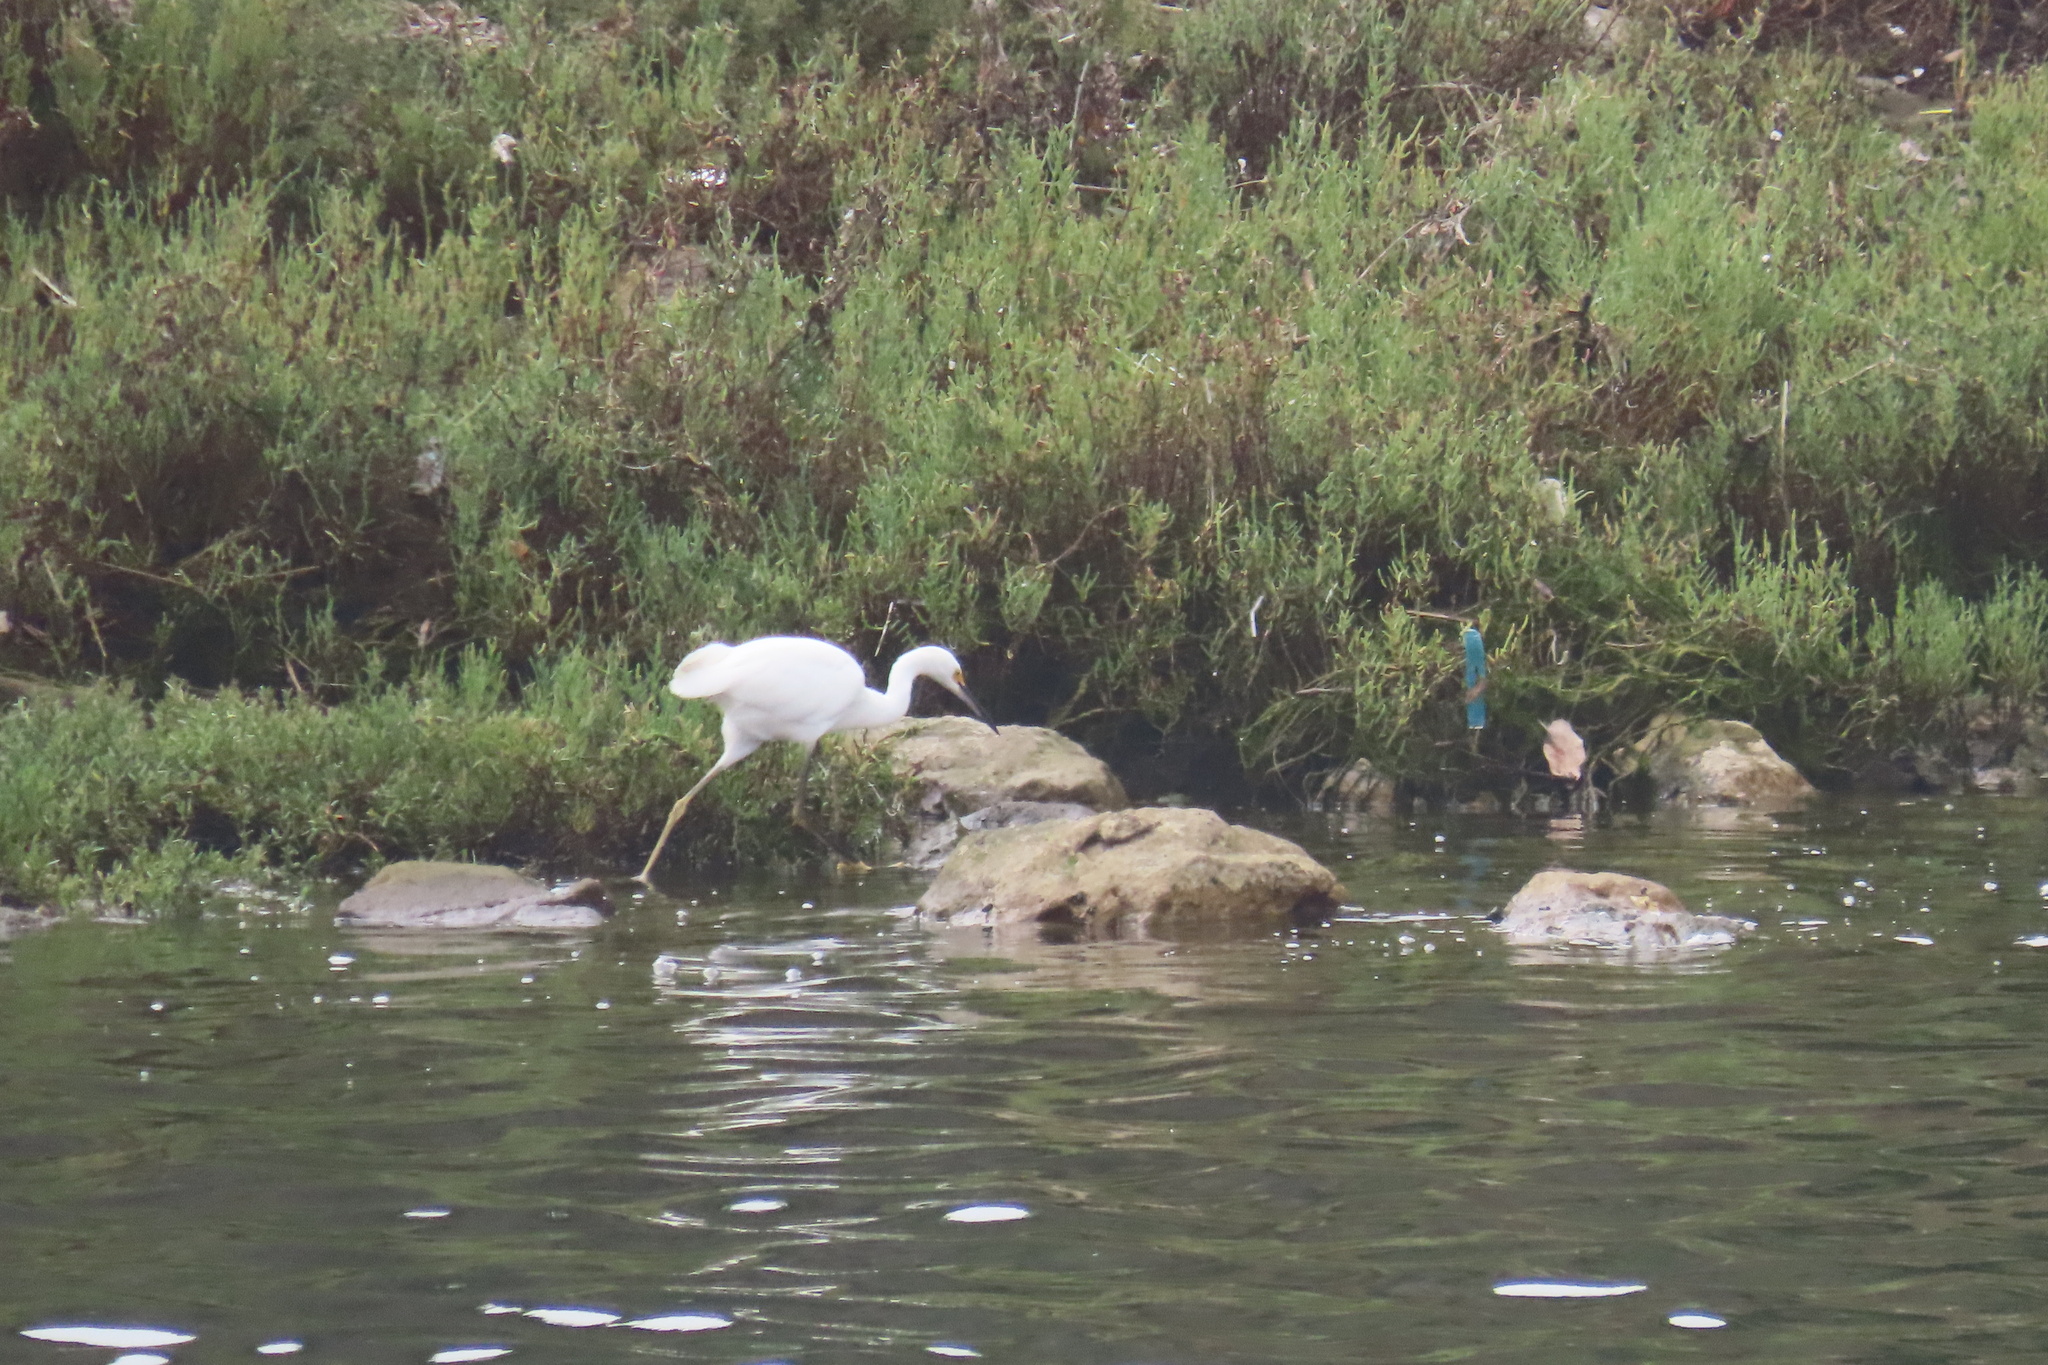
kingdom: Animalia
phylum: Chordata
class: Aves
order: Pelecaniformes
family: Ardeidae
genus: Egretta
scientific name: Egretta thula
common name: Snowy egret
